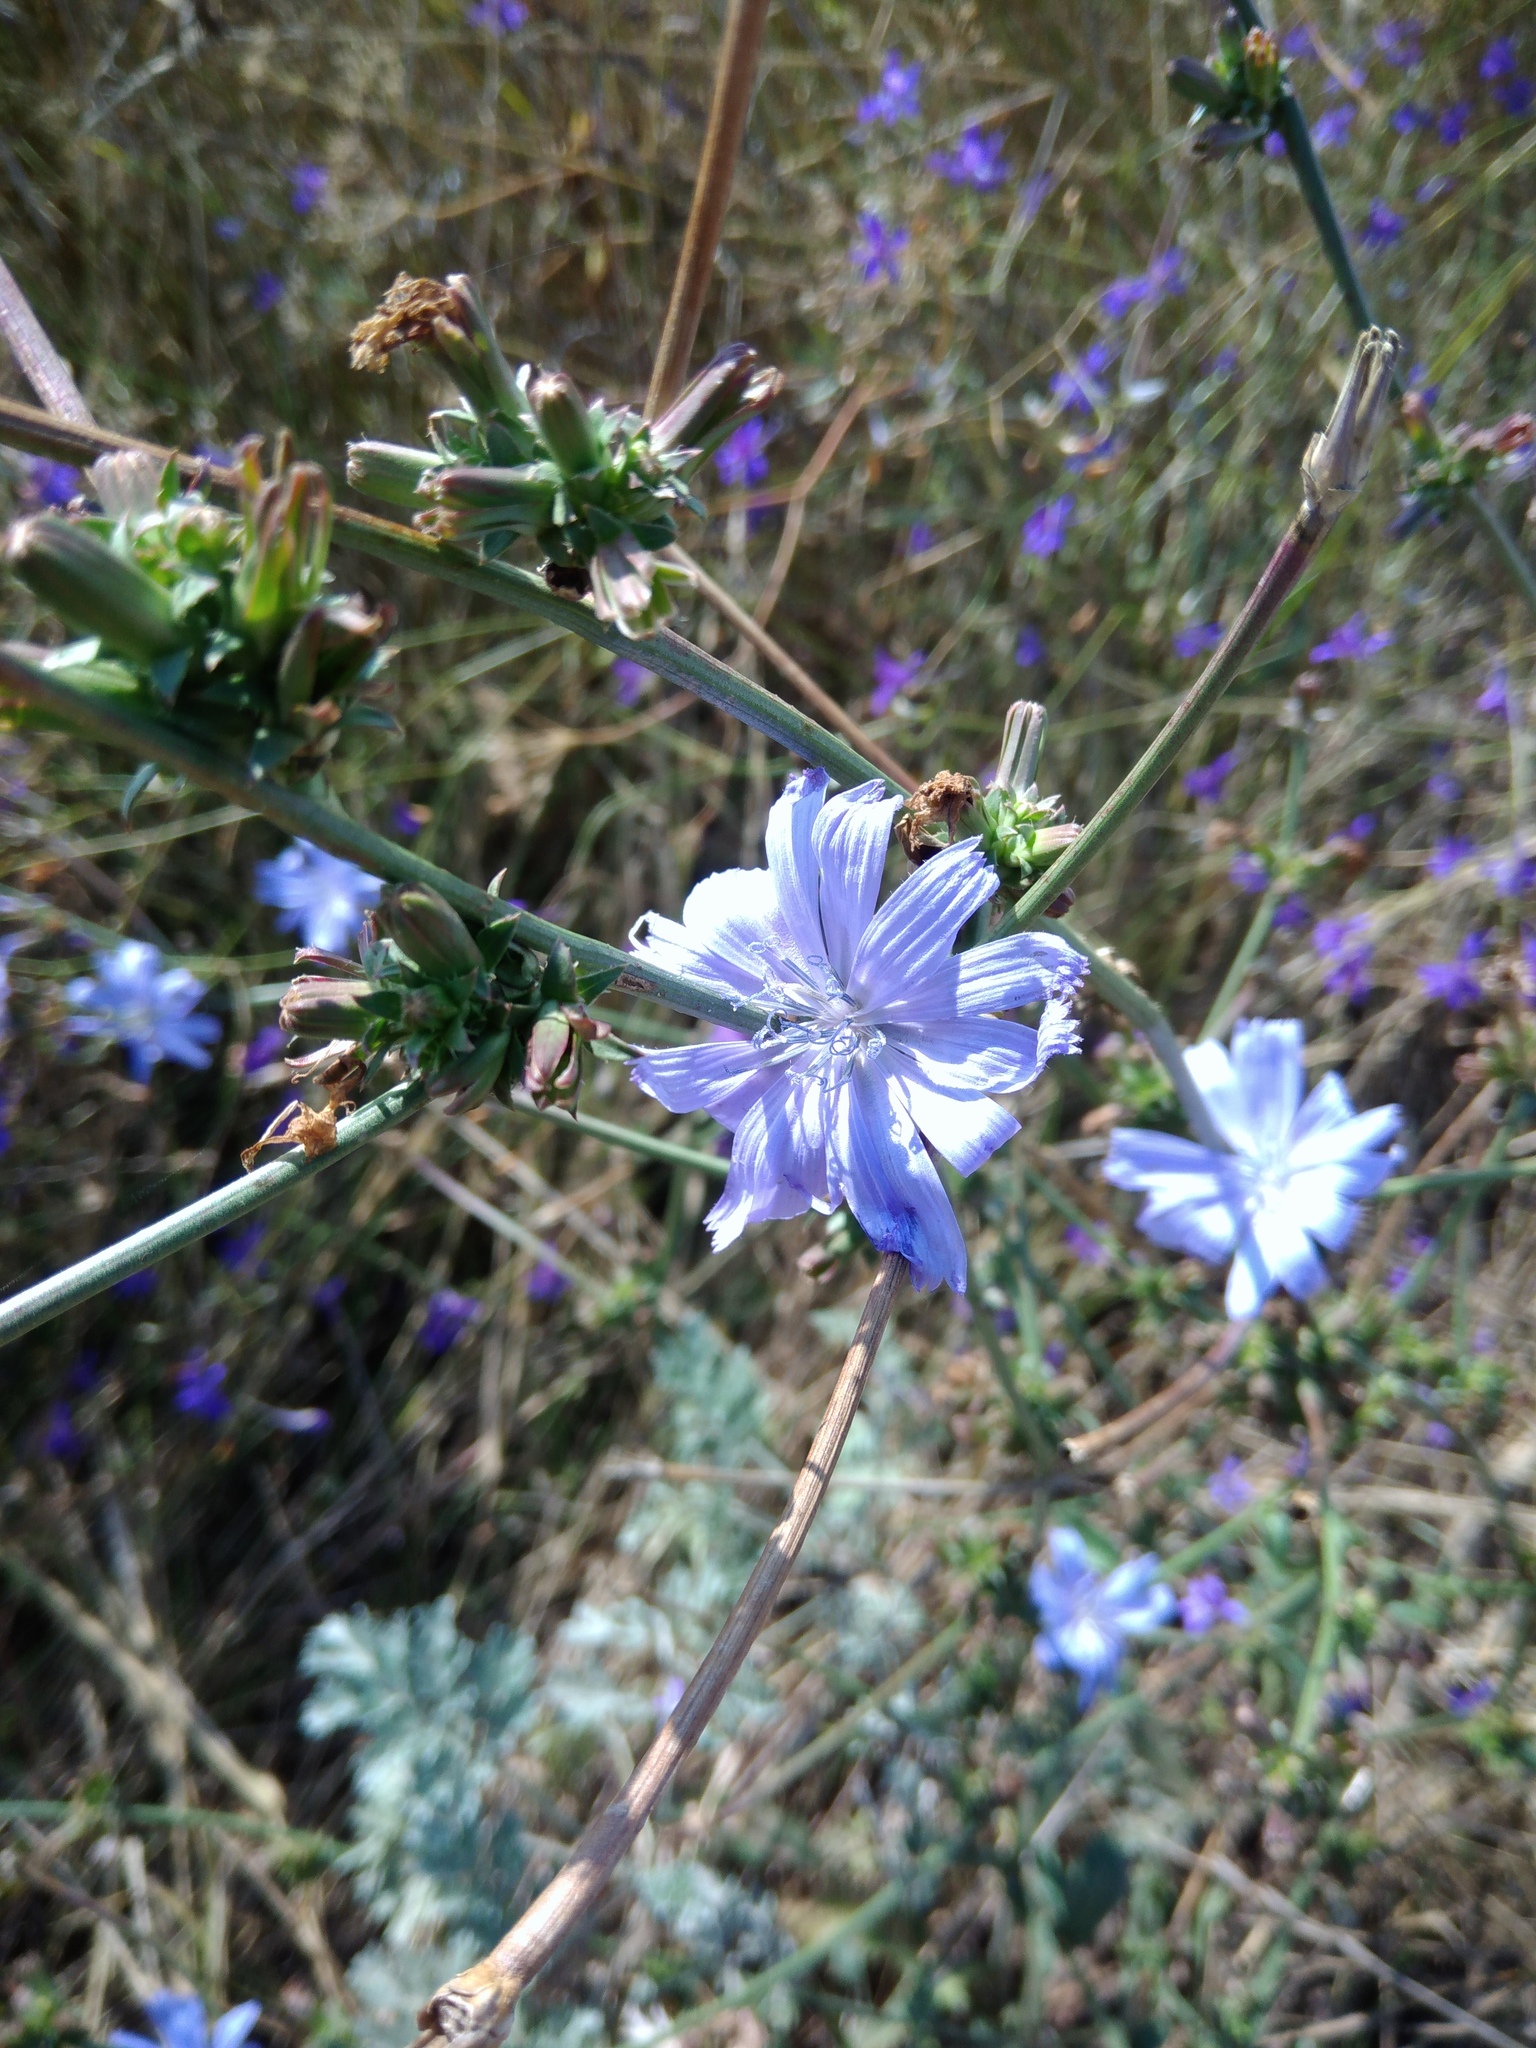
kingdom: Plantae
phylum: Tracheophyta
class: Magnoliopsida
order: Asterales
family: Asteraceae
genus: Cichorium
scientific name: Cichorium intybus
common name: Chicory
